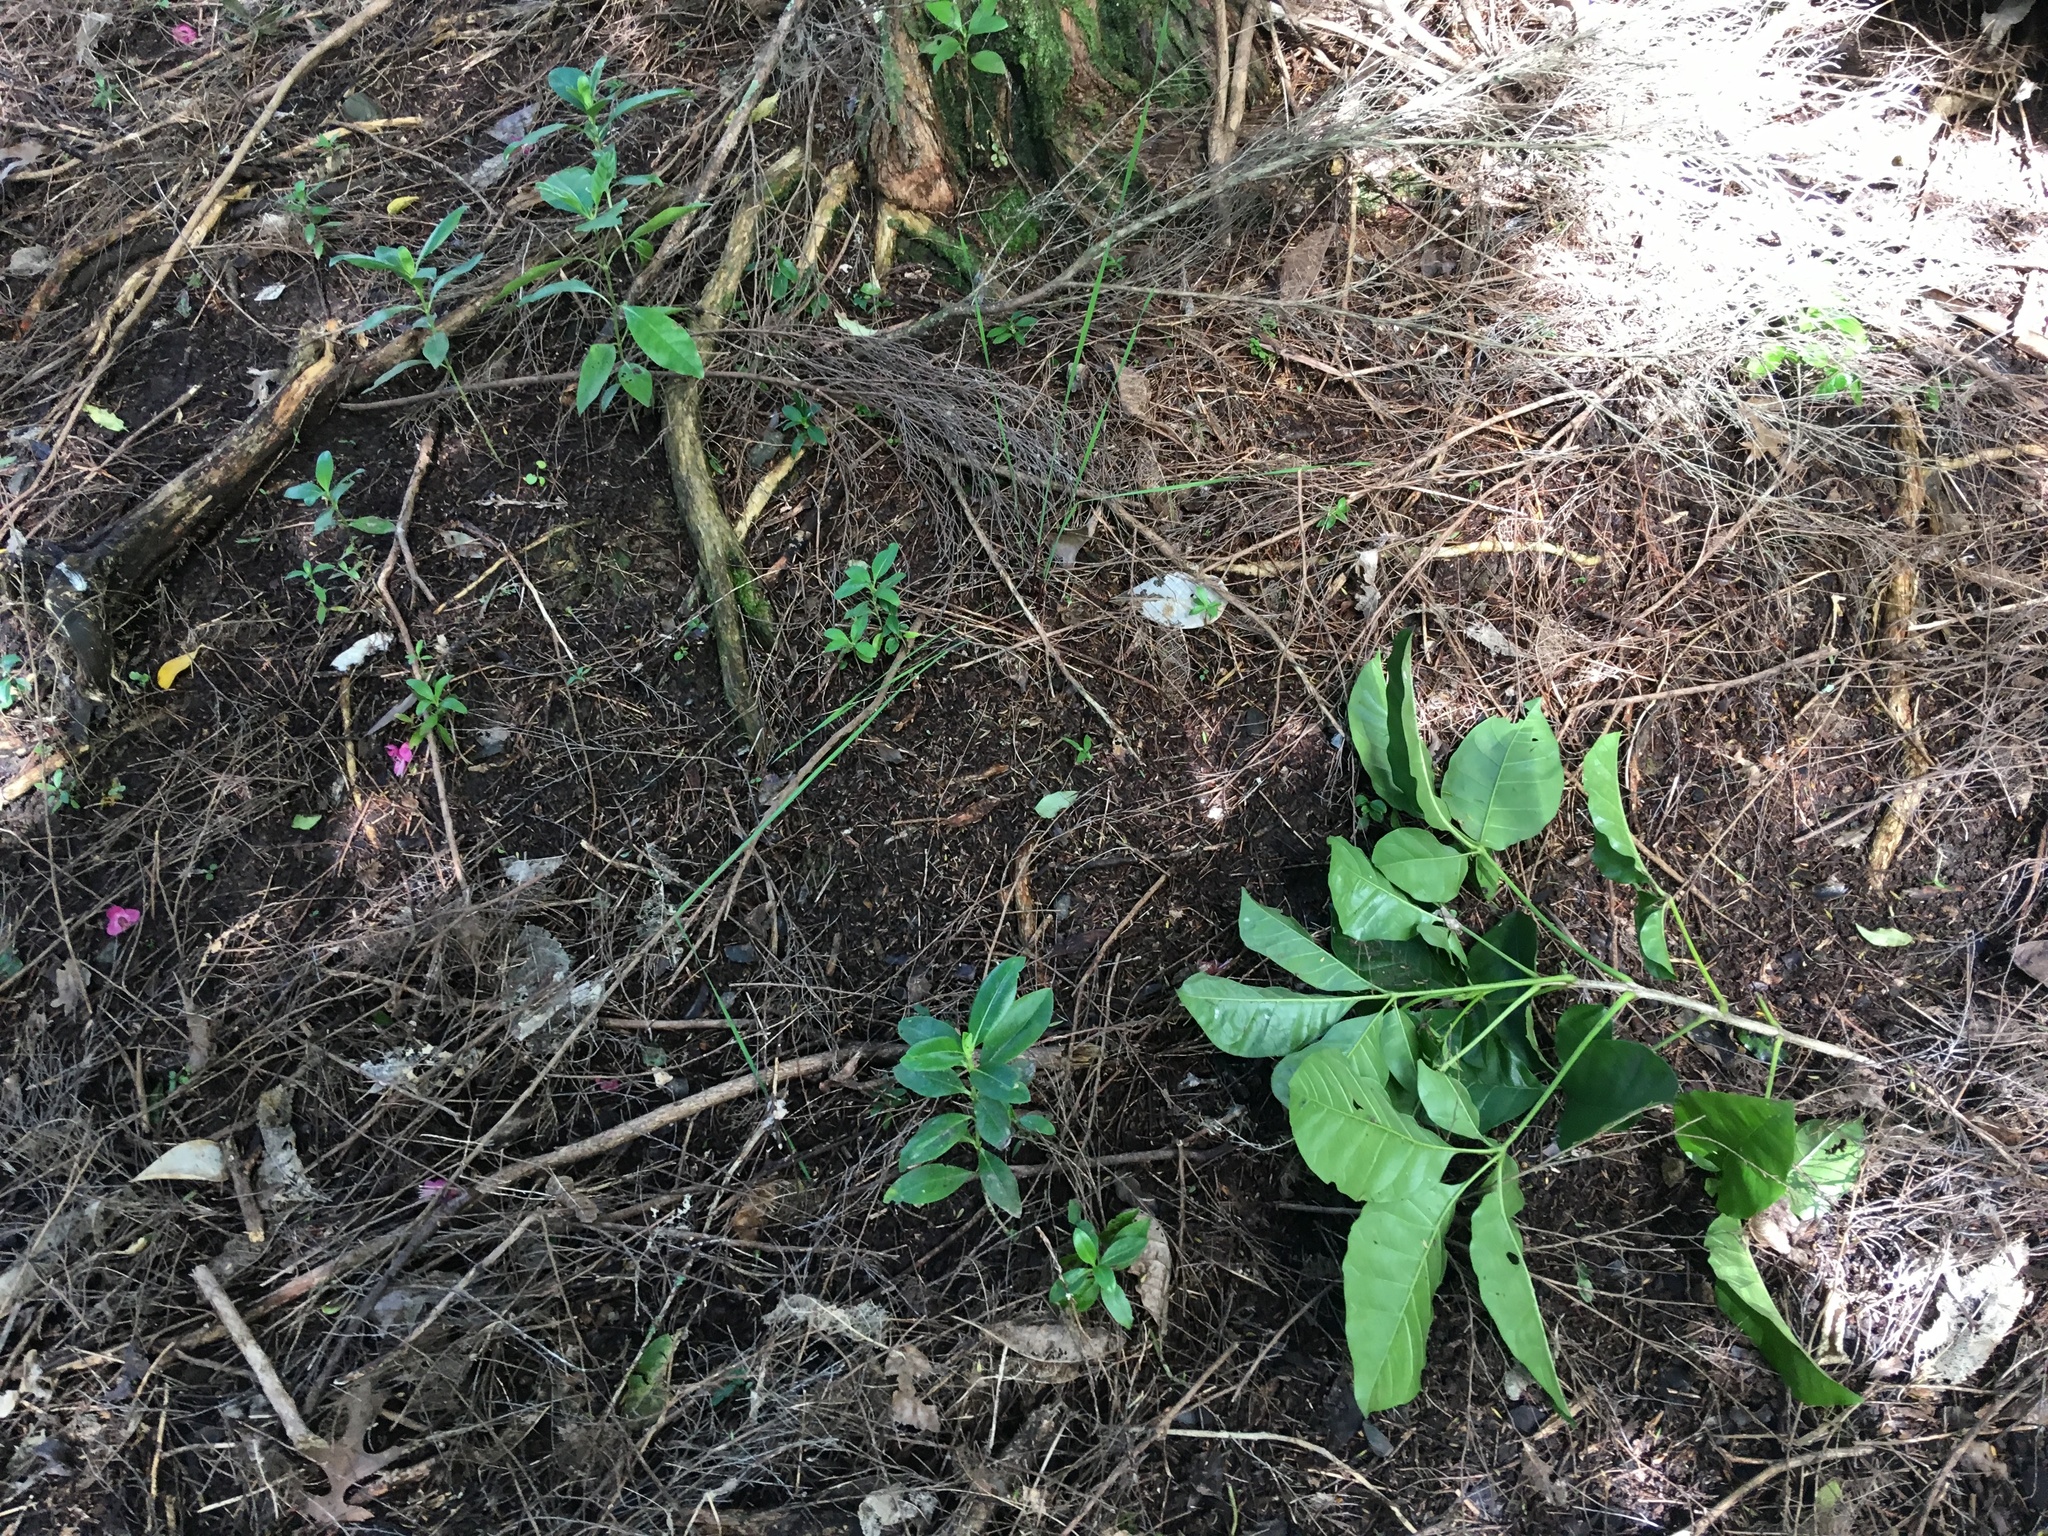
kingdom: Plantae
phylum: Tracheophyta
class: Magnoliopsida
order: Lamiales
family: Lamiaceae
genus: Vitex
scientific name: Vitex lucens
